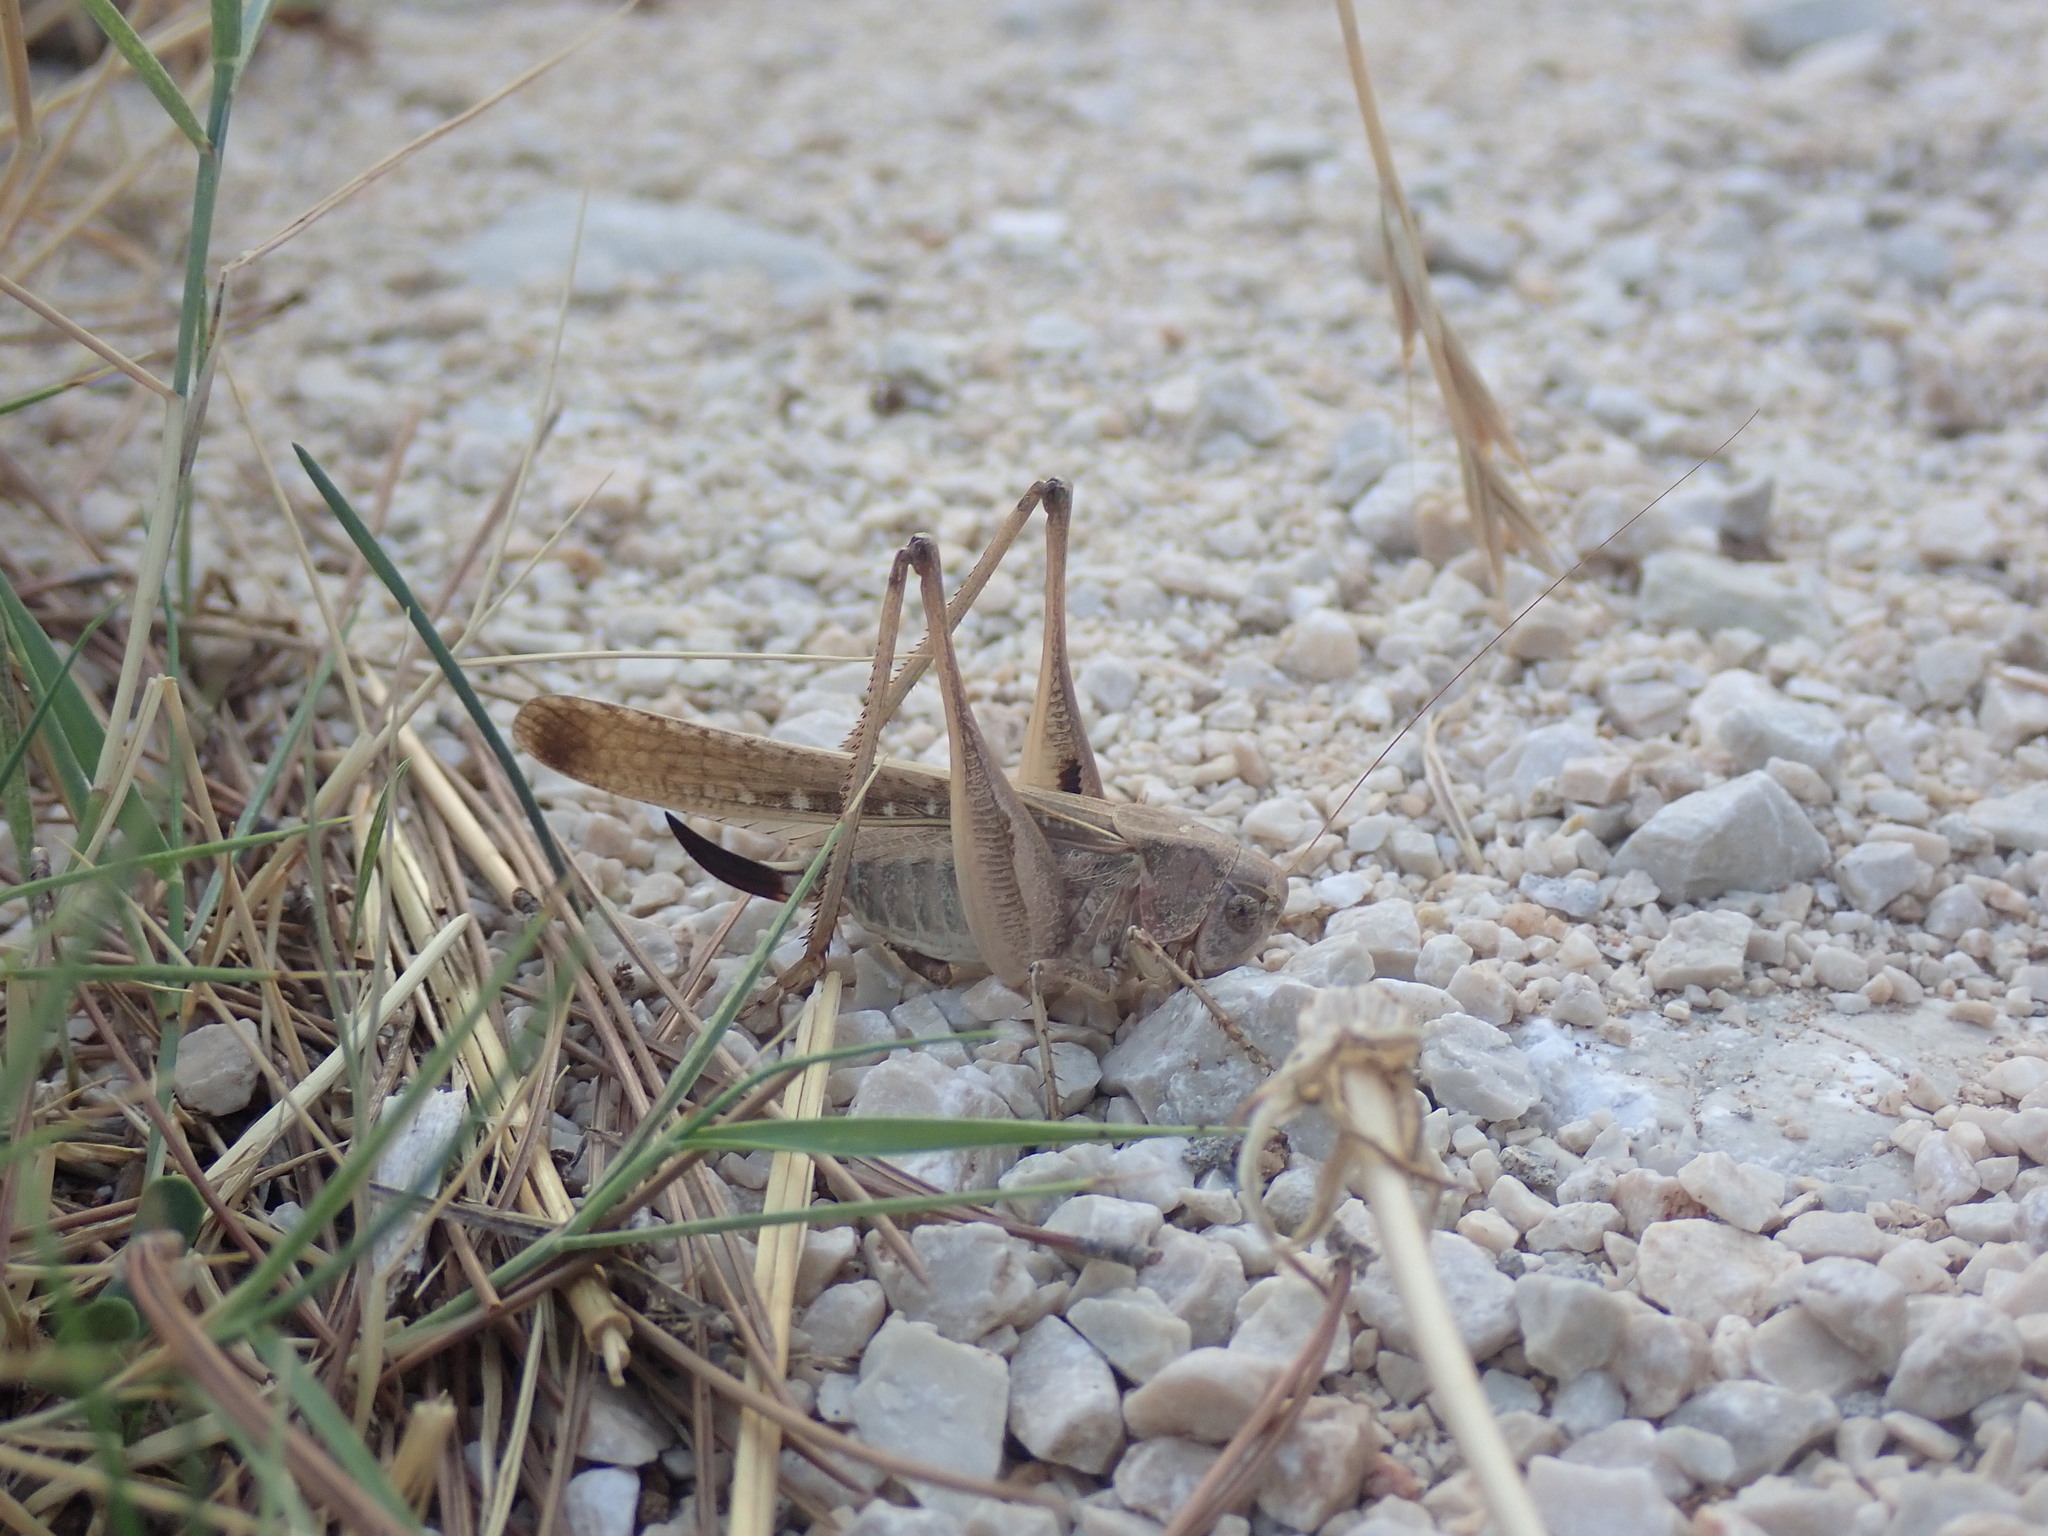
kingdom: Animalia
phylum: Arthropoda
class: Insecta
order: Orthoptera
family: Tettigoniidae
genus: Platycleis
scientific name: Platycleis intermedia
